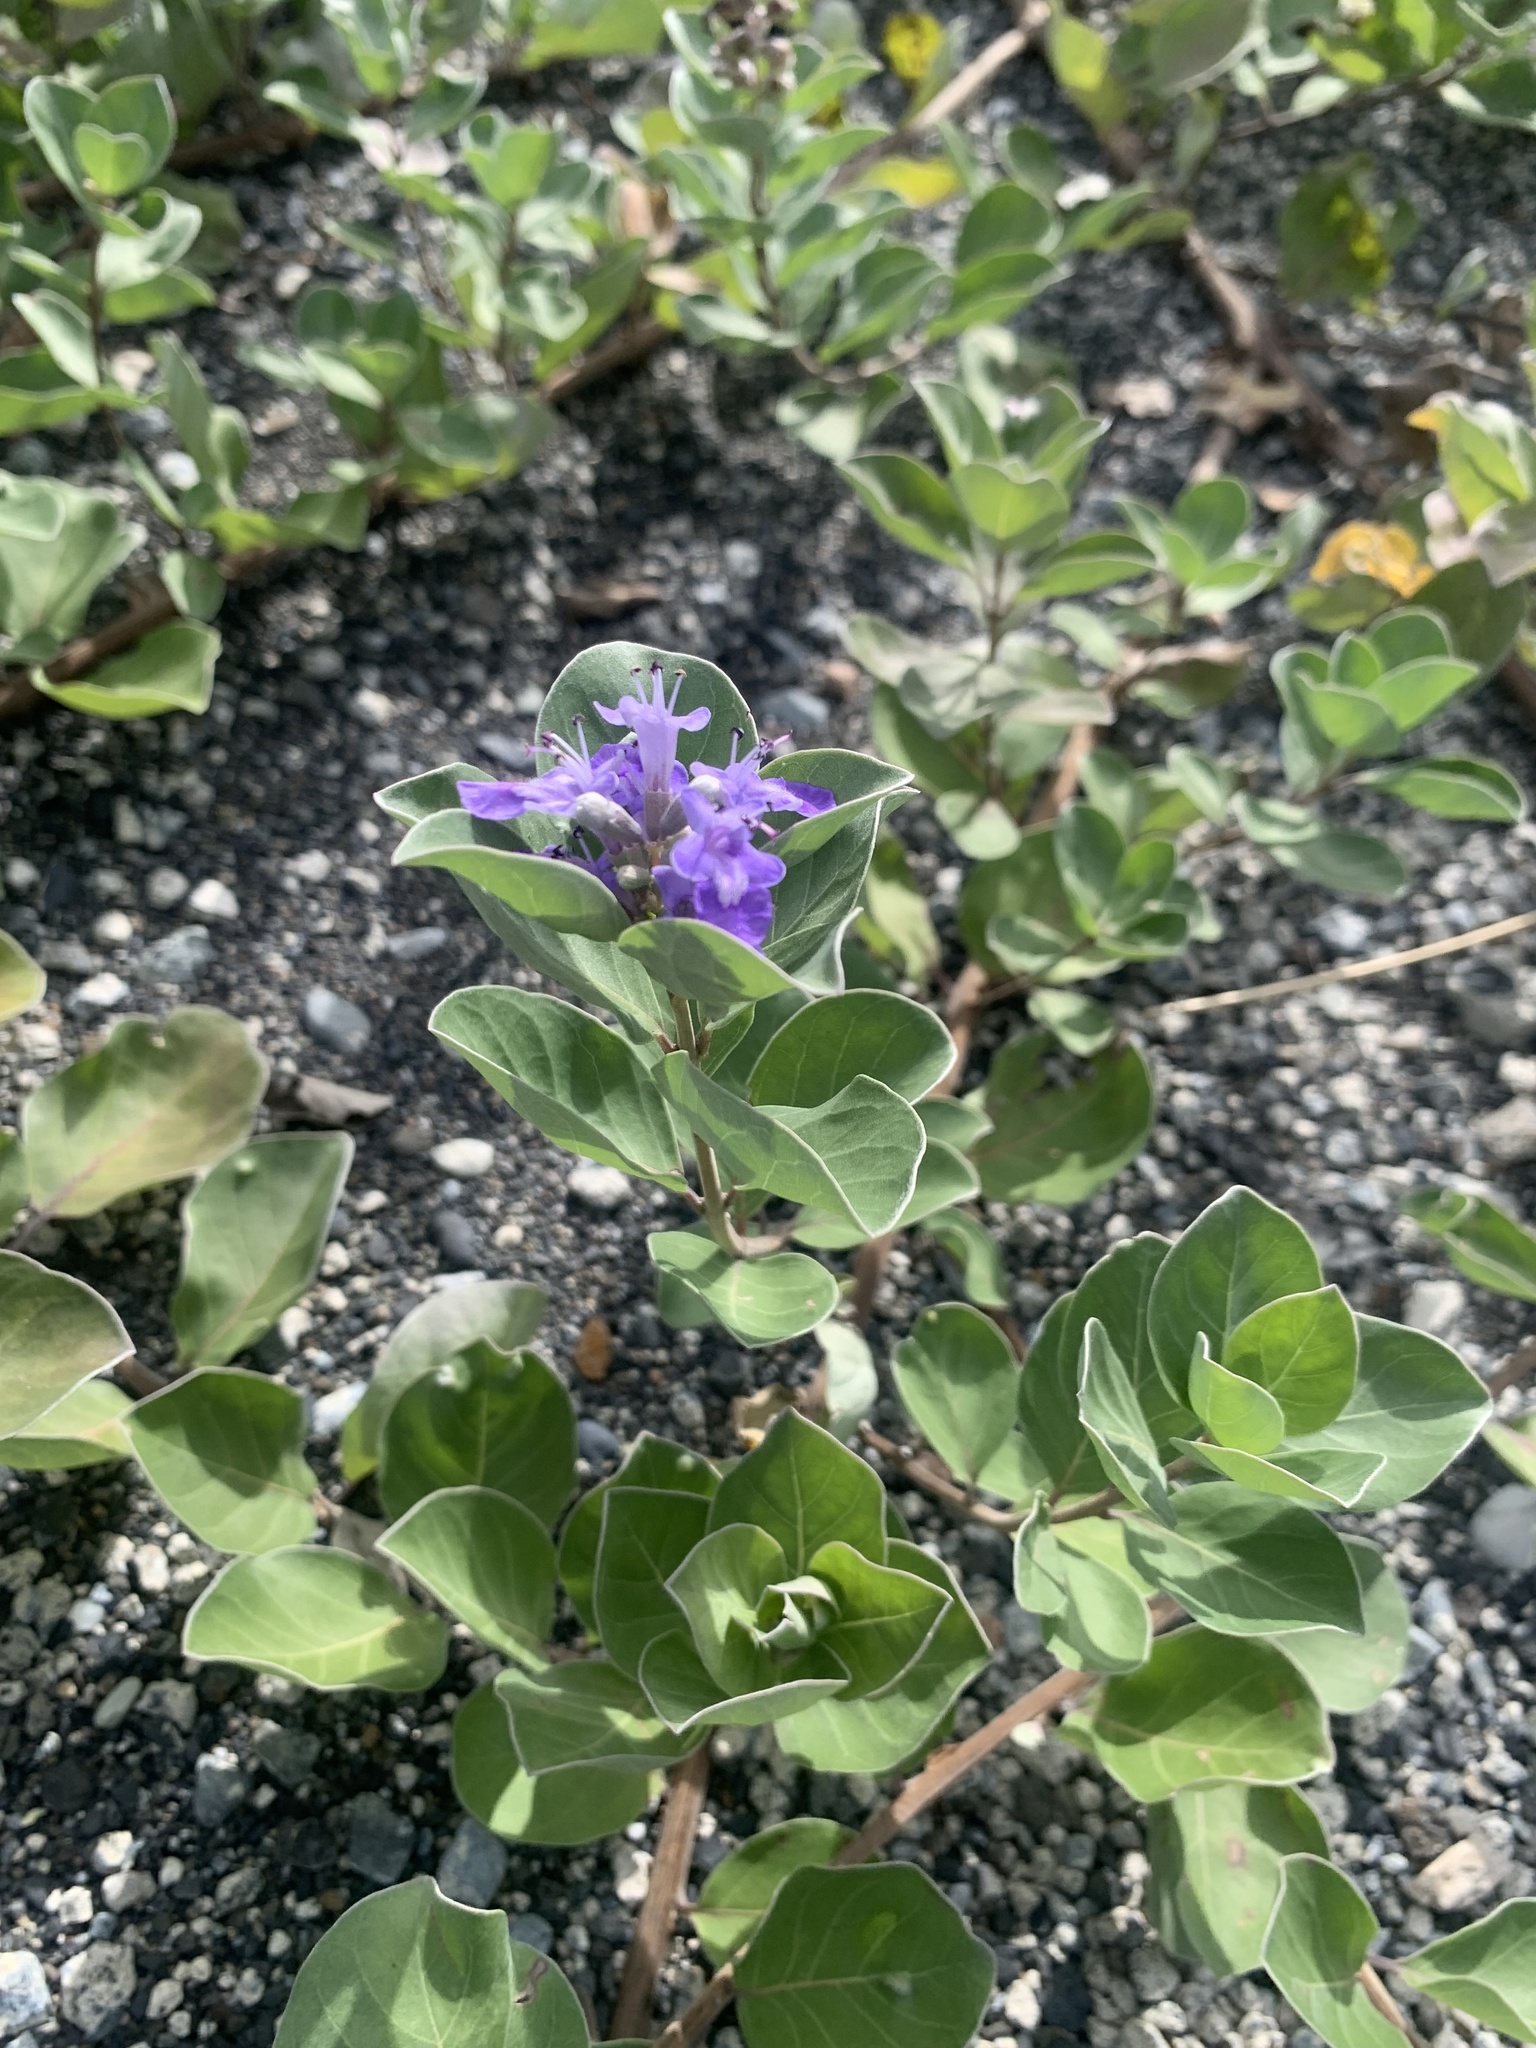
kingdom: Plantae
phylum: Tracheophyta
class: Magnoliopsida
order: Lamiales
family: Lamiaceae
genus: Vitex
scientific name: Vitex rotundifolia
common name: Beach vitex
